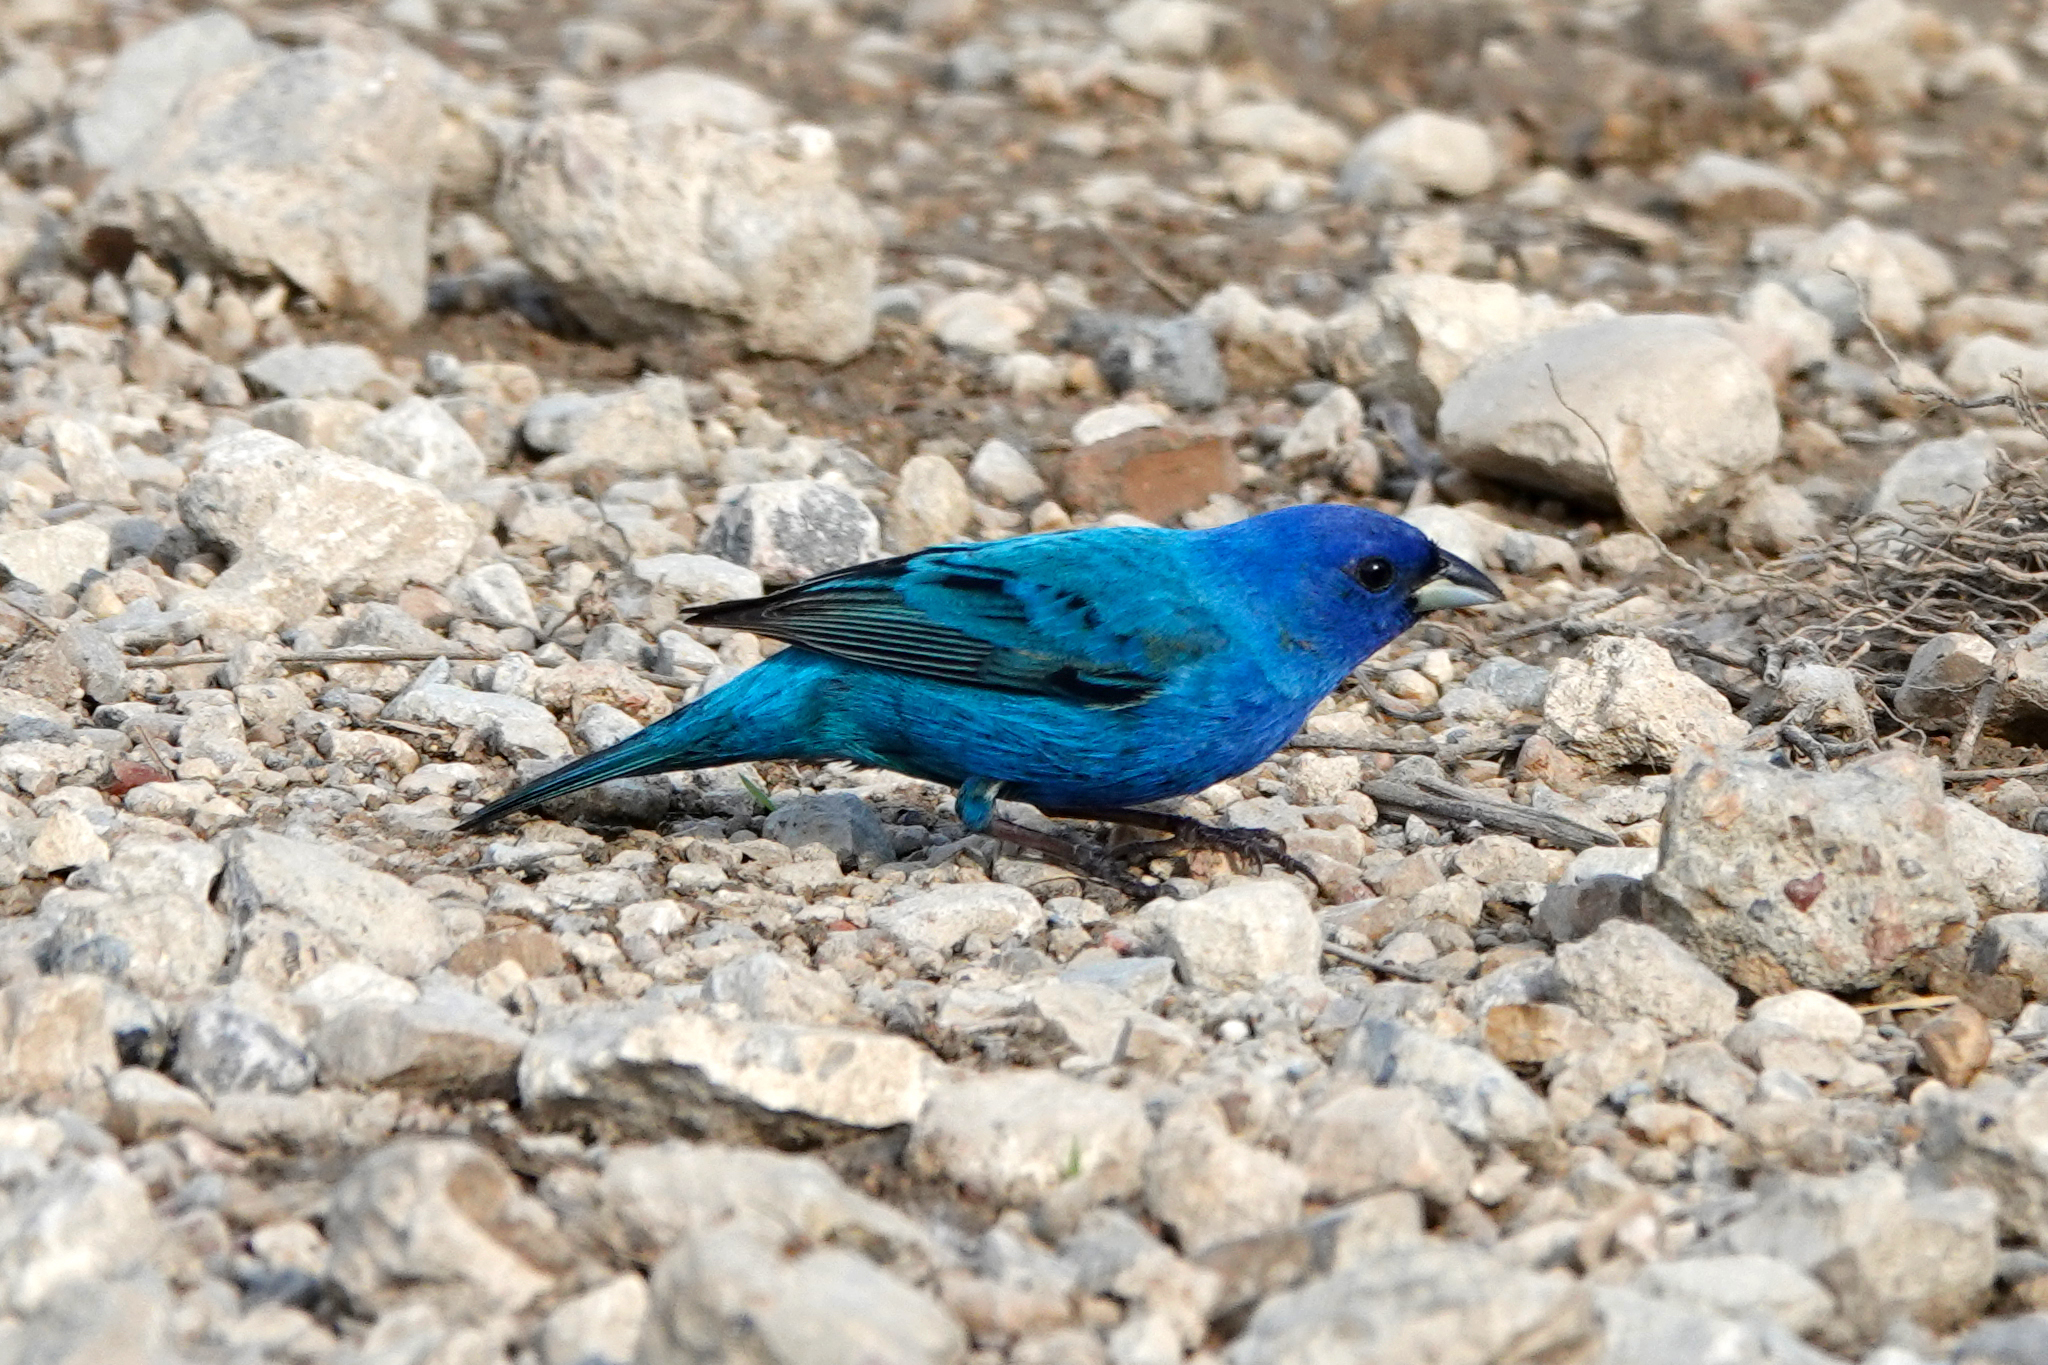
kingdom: Animalia
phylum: Chordata
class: Aves
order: Passeriformes
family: Cardinalidae
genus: Passerina
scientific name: Passerina cyanea
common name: Indigo bunting
